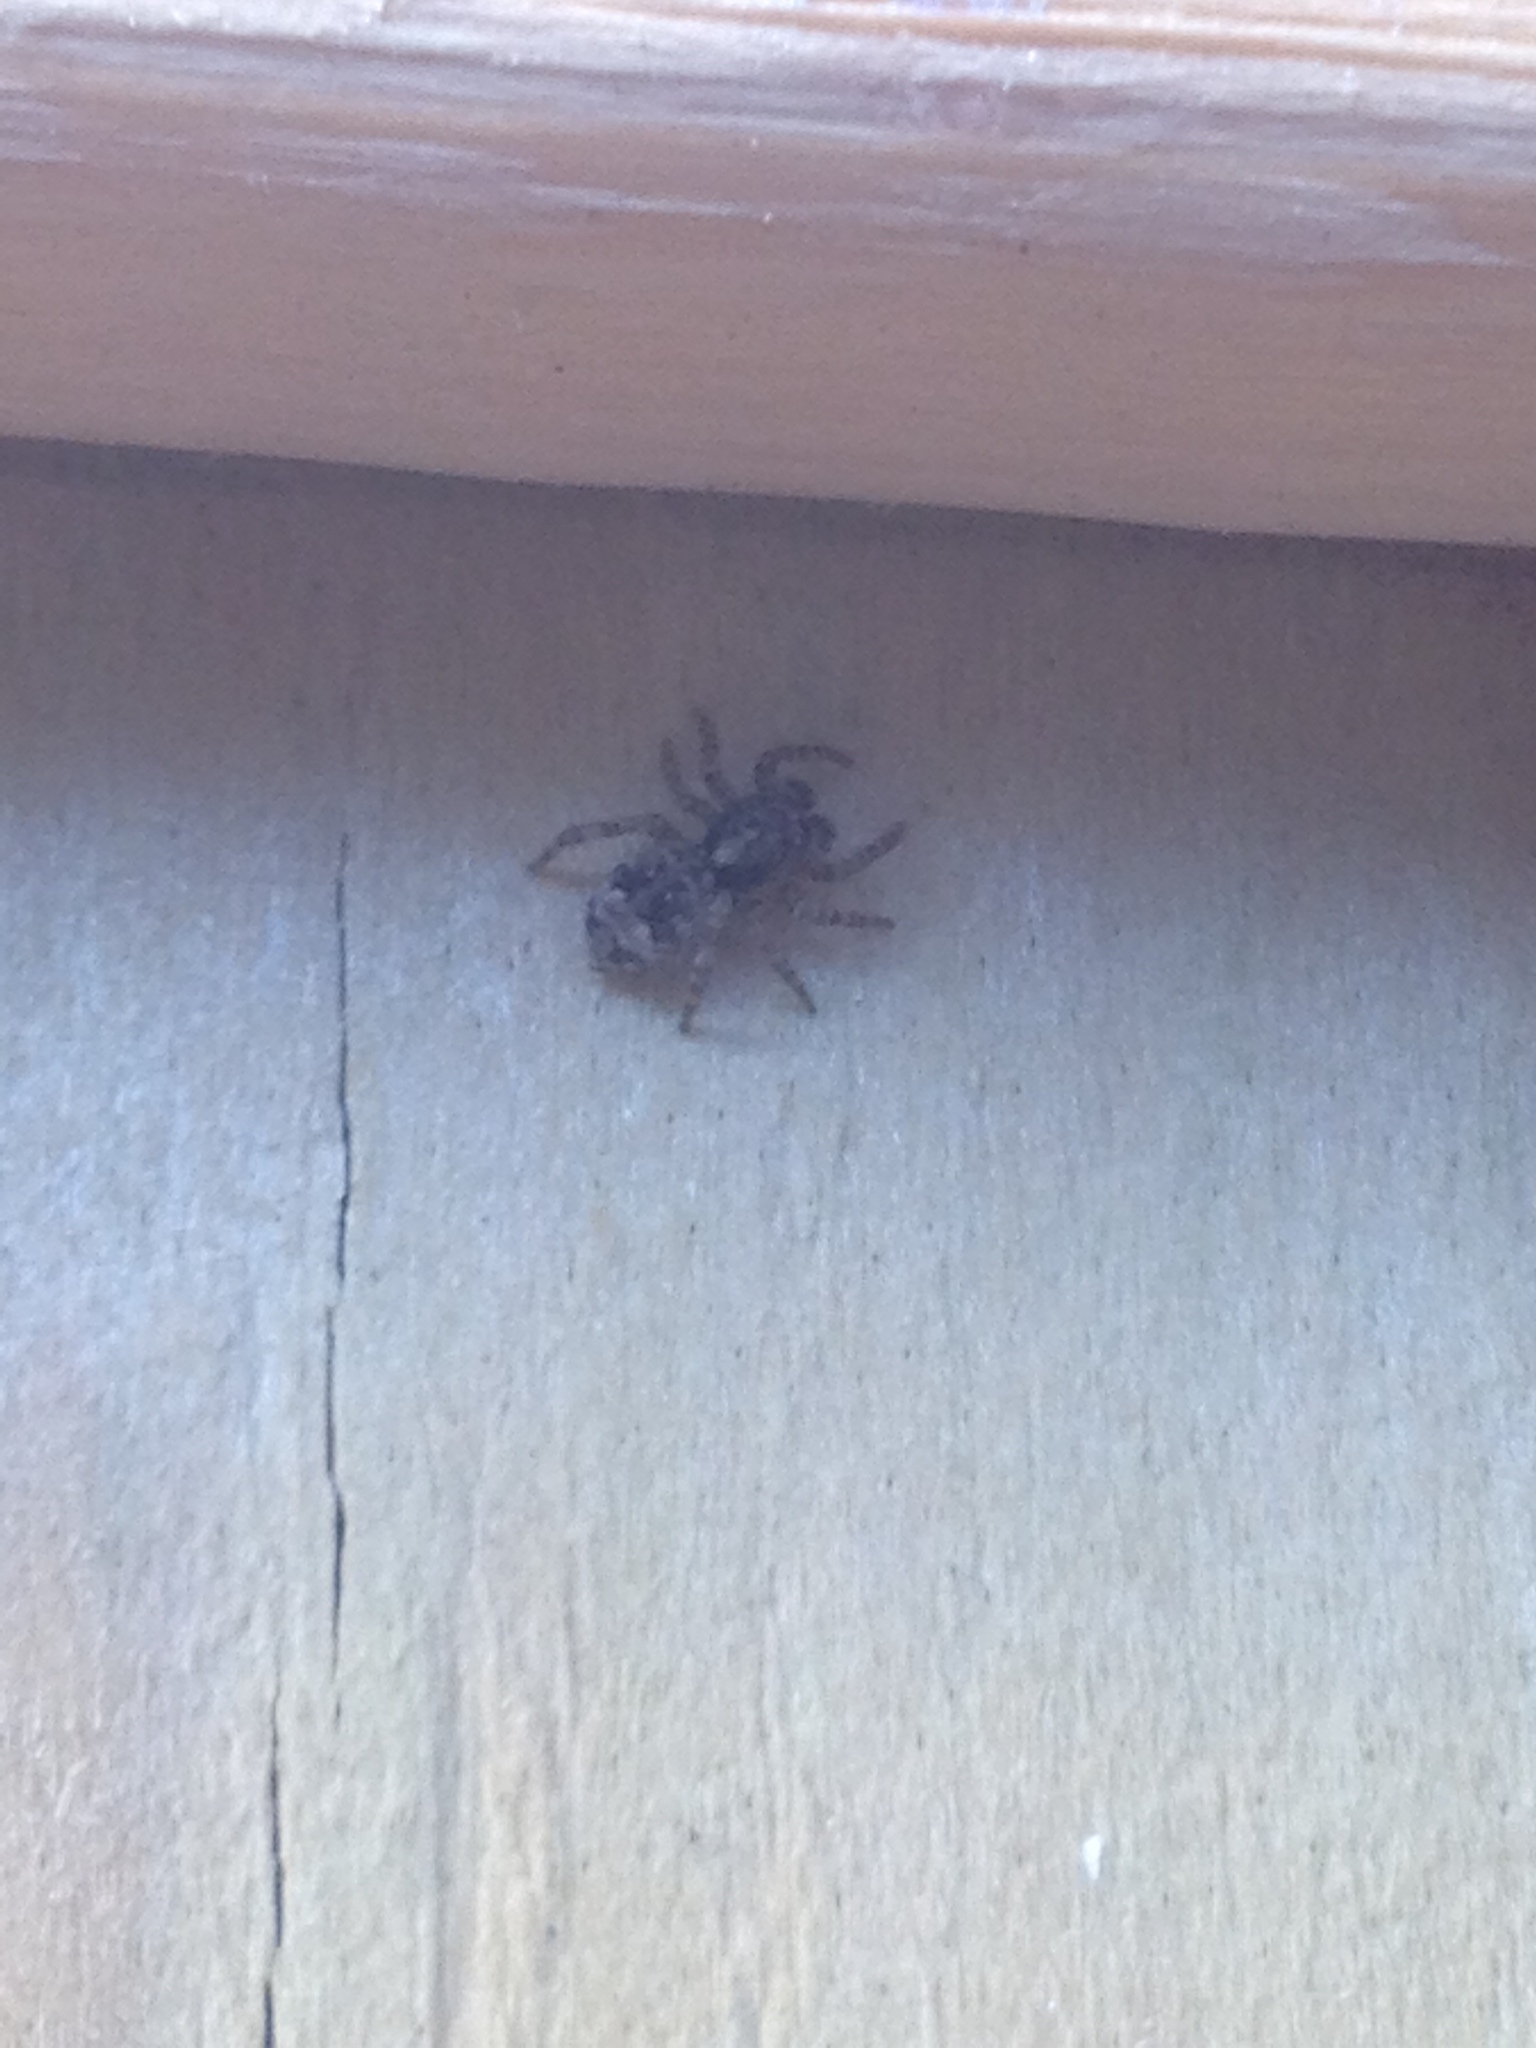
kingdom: Animalia
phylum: Arthropoda
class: Arachnida
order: Araneae
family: Salticidae
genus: Attulus
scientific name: Attulus fasciger
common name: Asiatic wall jumping spider
